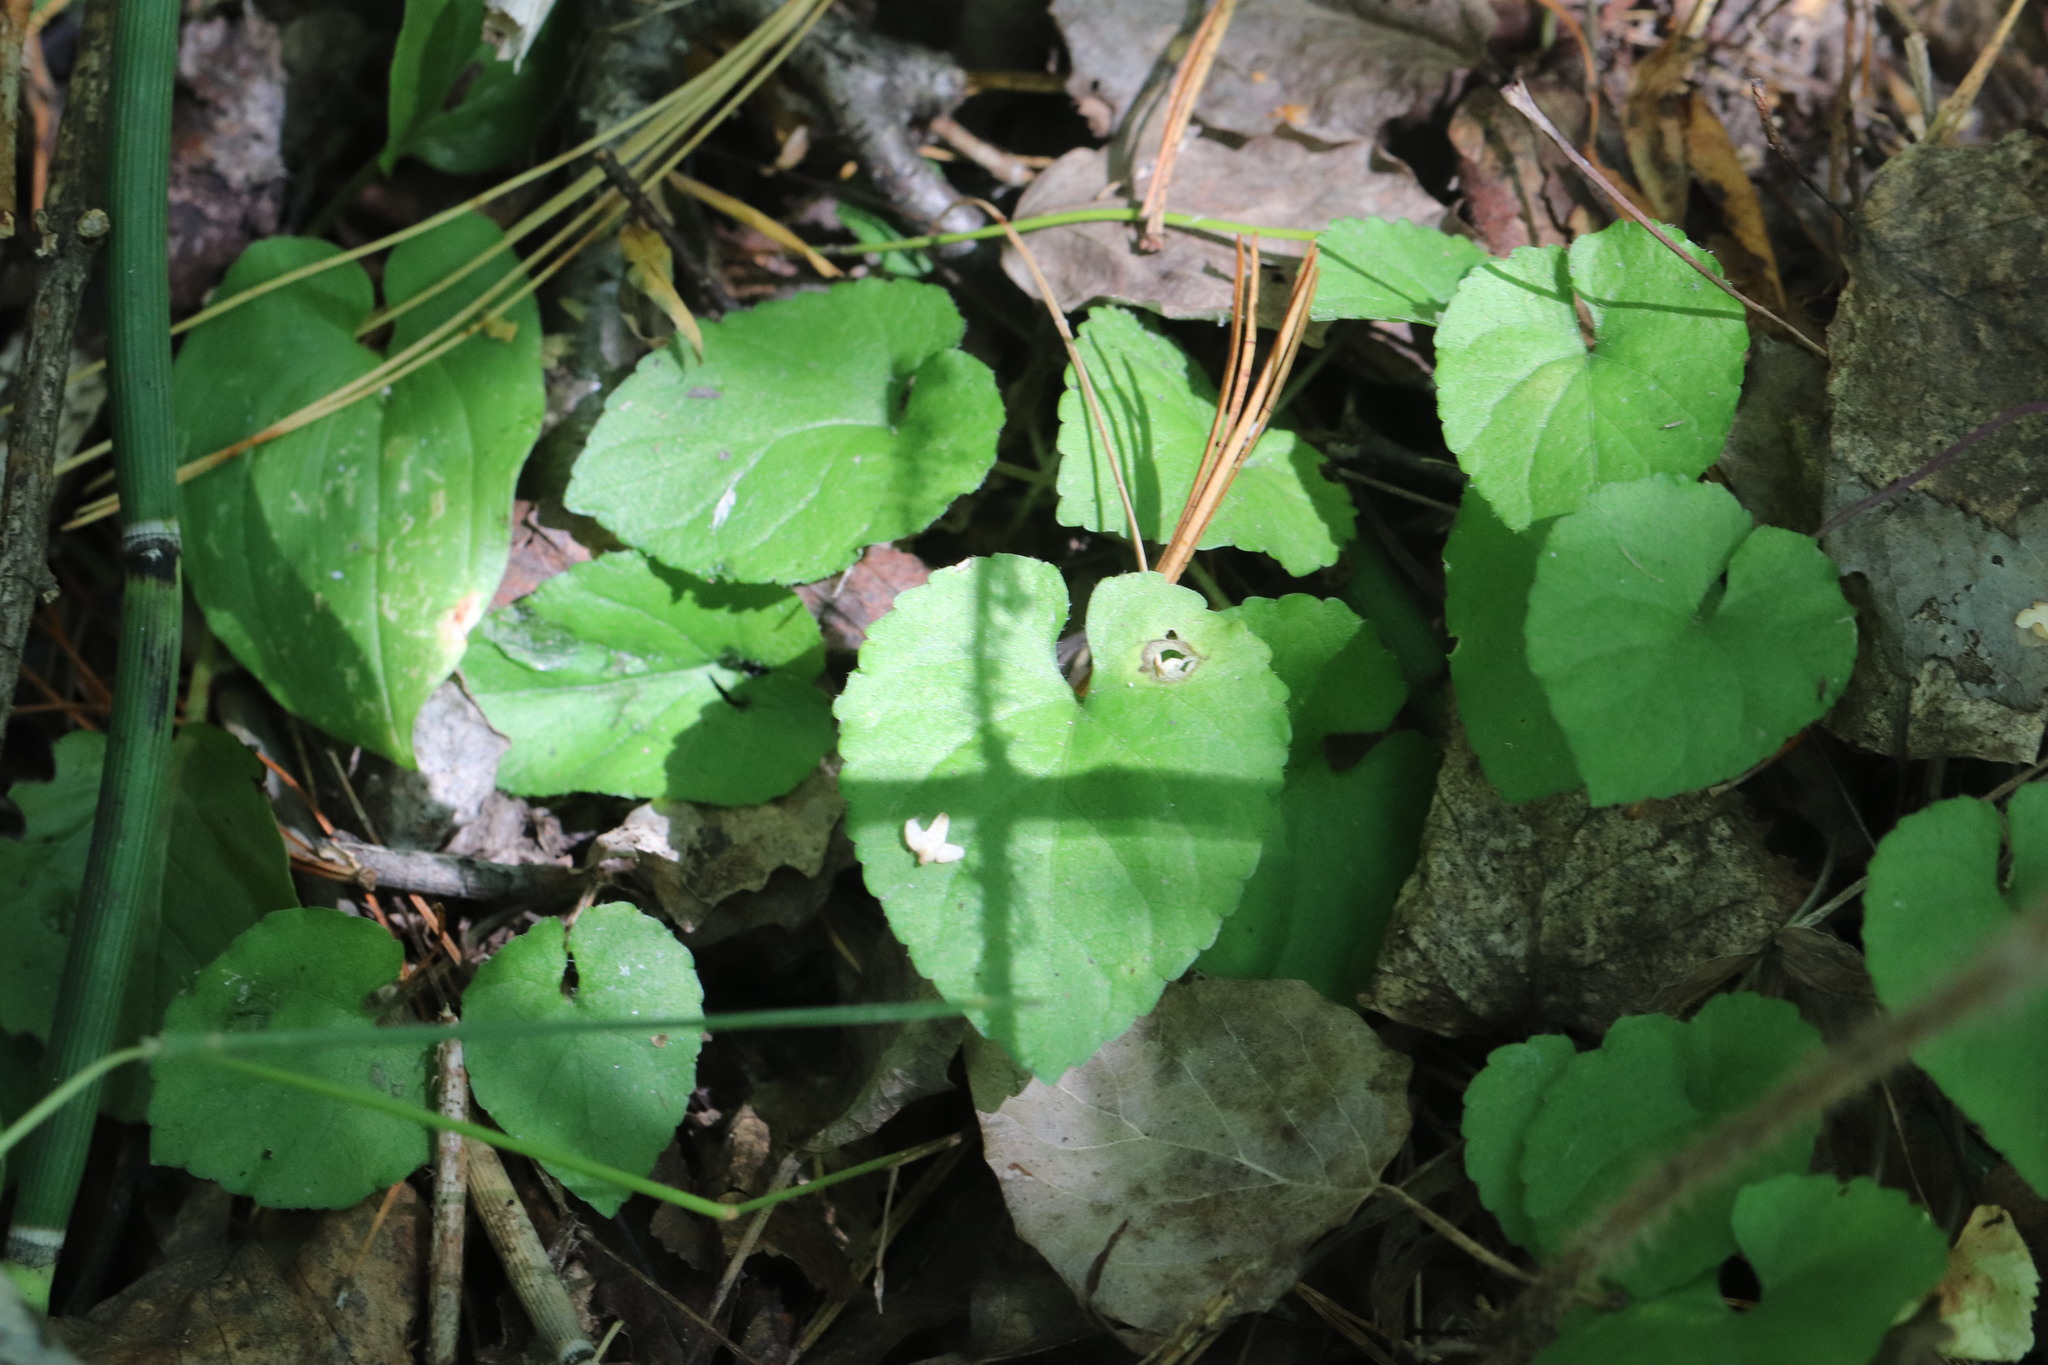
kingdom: Plantae
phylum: Tracheophyta
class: Magnoliopsida
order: Malpighiales
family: Violaceae
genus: Viola
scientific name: Viola selkirkii
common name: Selkirk's violet
